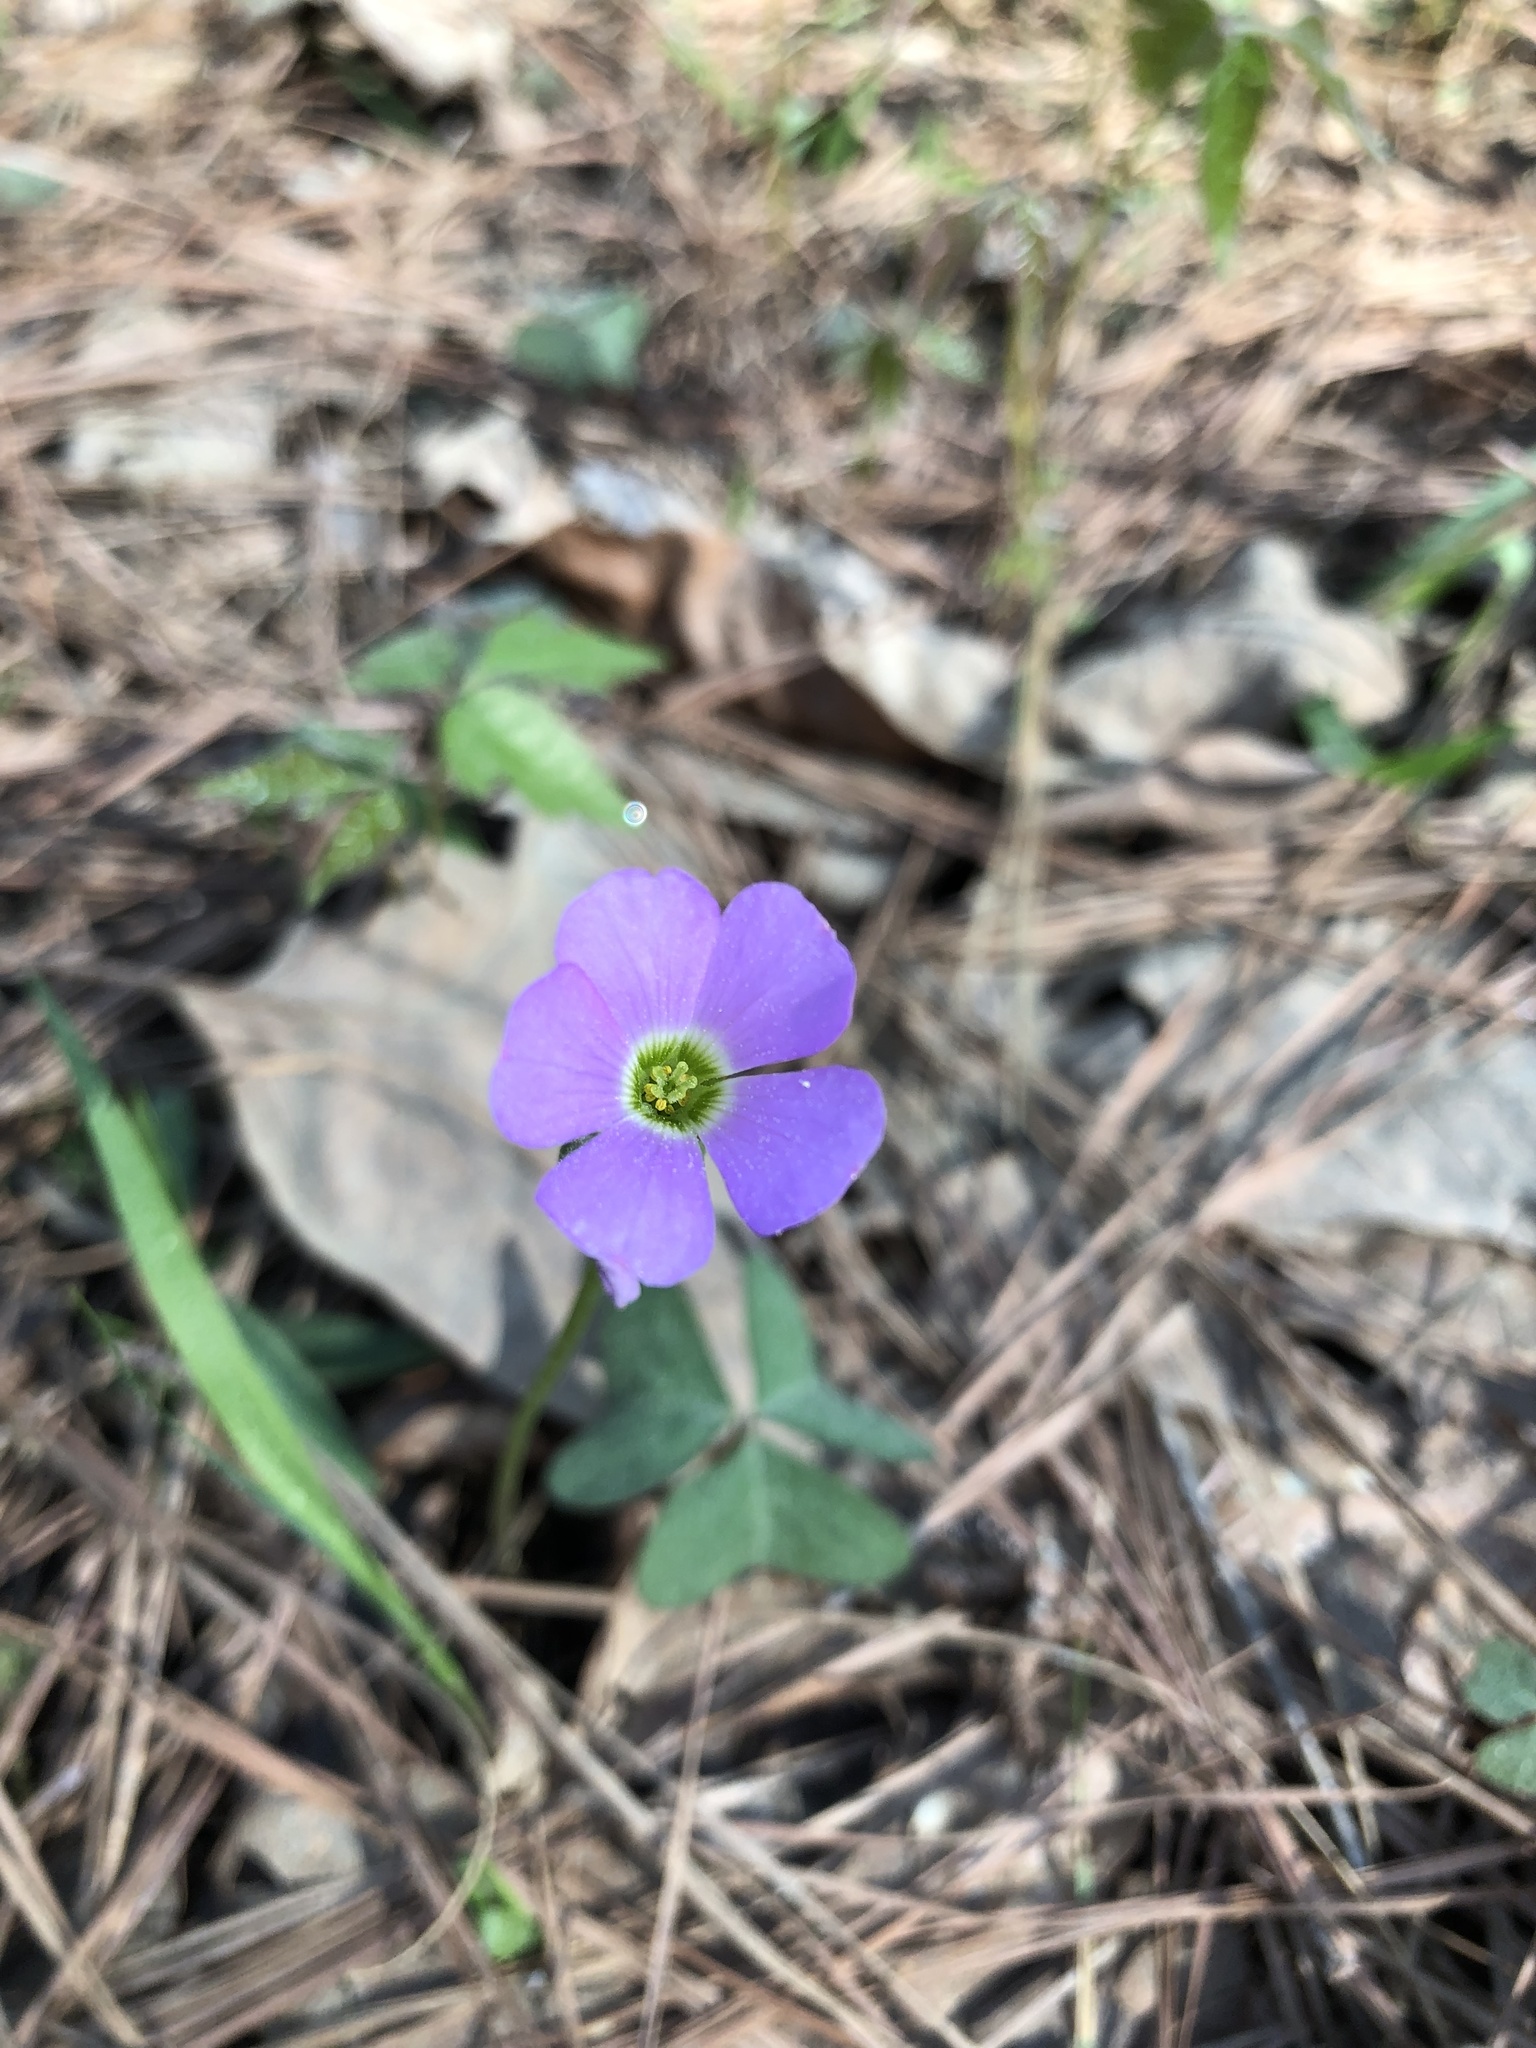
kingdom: Plantae
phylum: Tracheophyta
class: Magnoliopsida
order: Oxalidales
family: Oxalidaceae
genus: Oxalis
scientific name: Oxalis violacea
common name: Violet wood-sorrel
